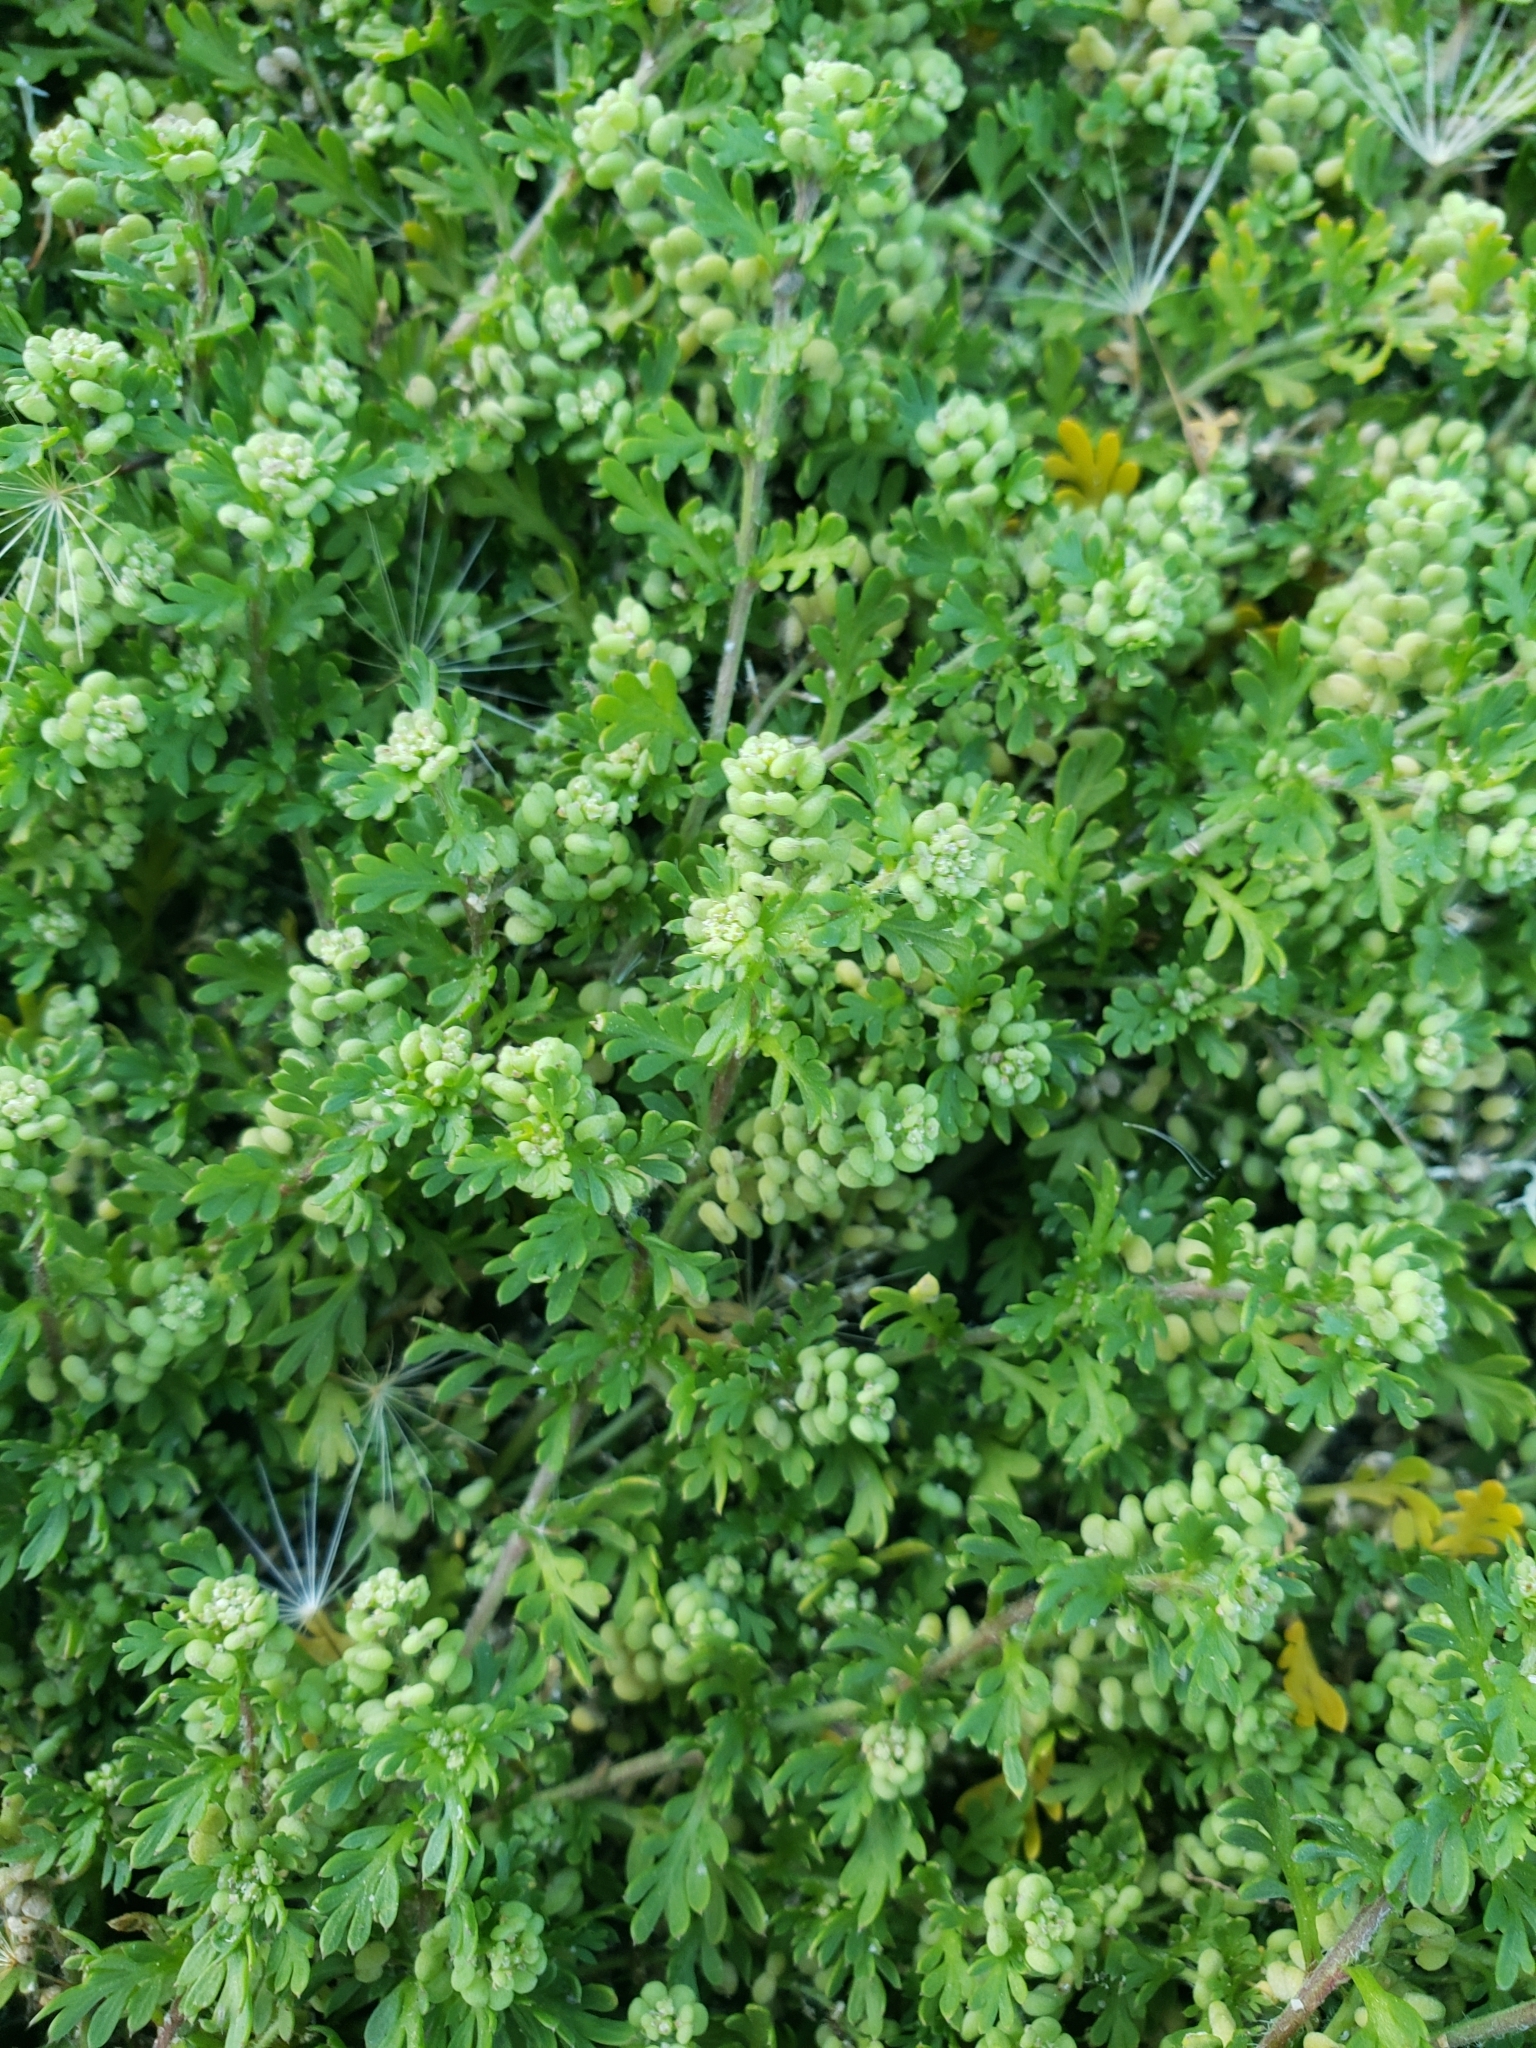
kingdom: Plantae
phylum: Tracheophyta
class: Magnoliopsida
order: Brassicales
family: Brassicaceae
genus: Lepidium
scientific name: Lepidium didymum
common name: Lesser swinecress
